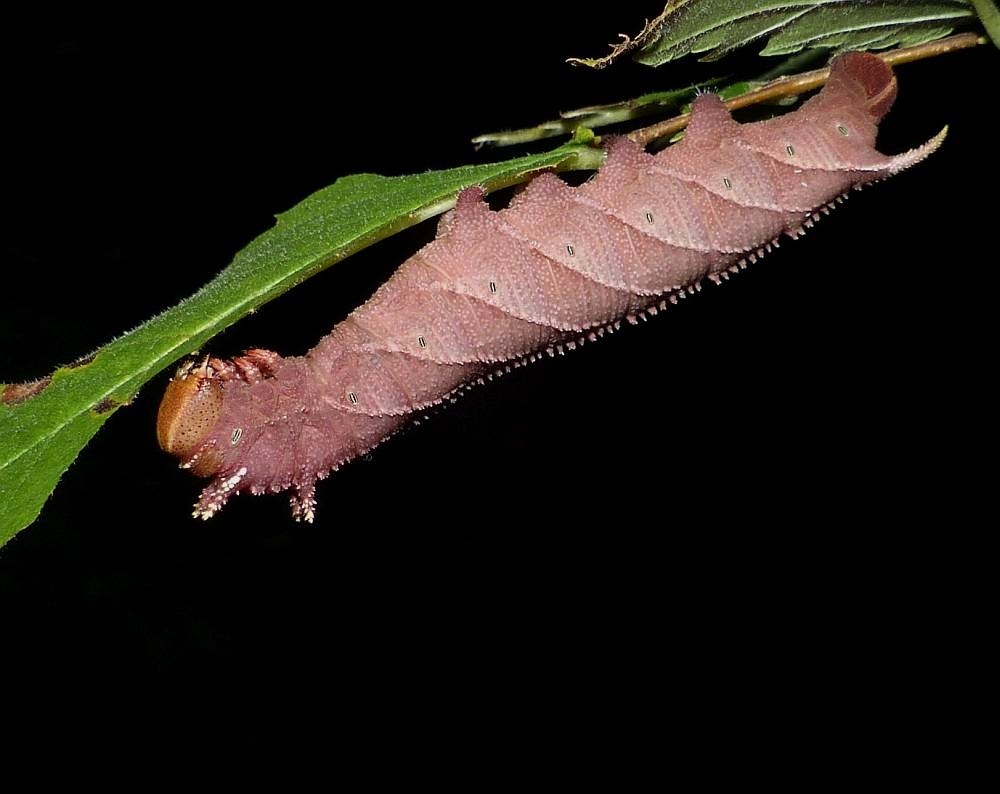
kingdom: Animalia
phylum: Arthropoda
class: Insecta
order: Lepidoptera
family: Sphingidae
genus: Ceratomia
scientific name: Ceratomia amyntor
